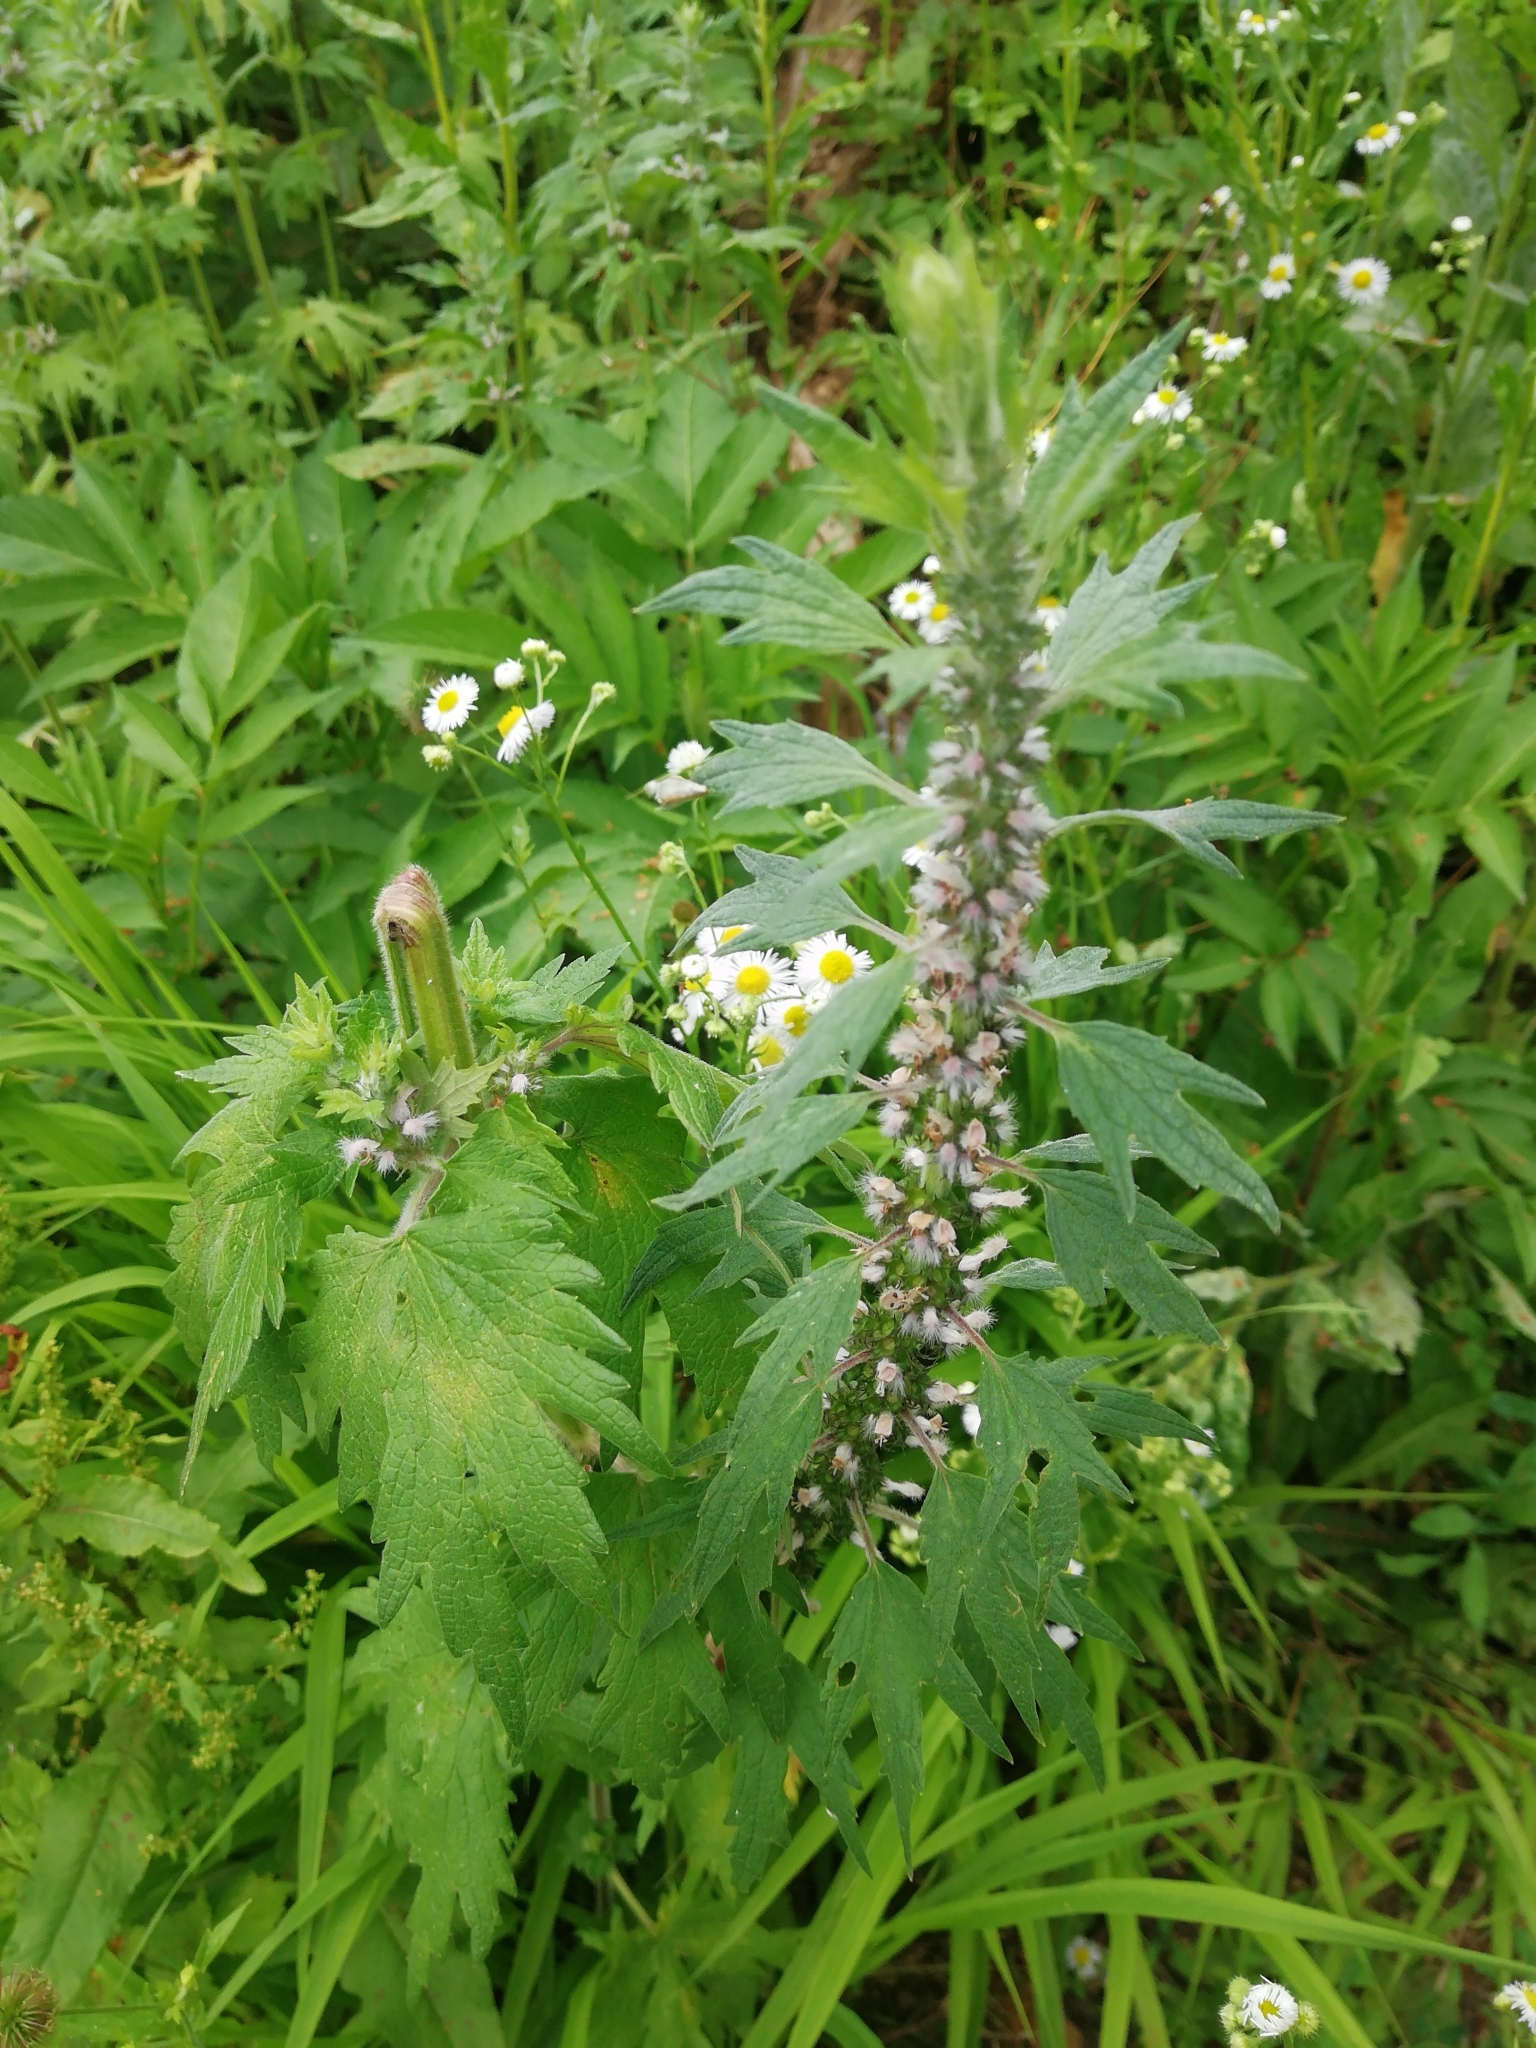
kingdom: Plantae
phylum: Tracheophyta
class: Magnoliopsida
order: Lamiales
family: Lamiaceae
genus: Leonurus
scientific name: Leonurus quinquelobatus
